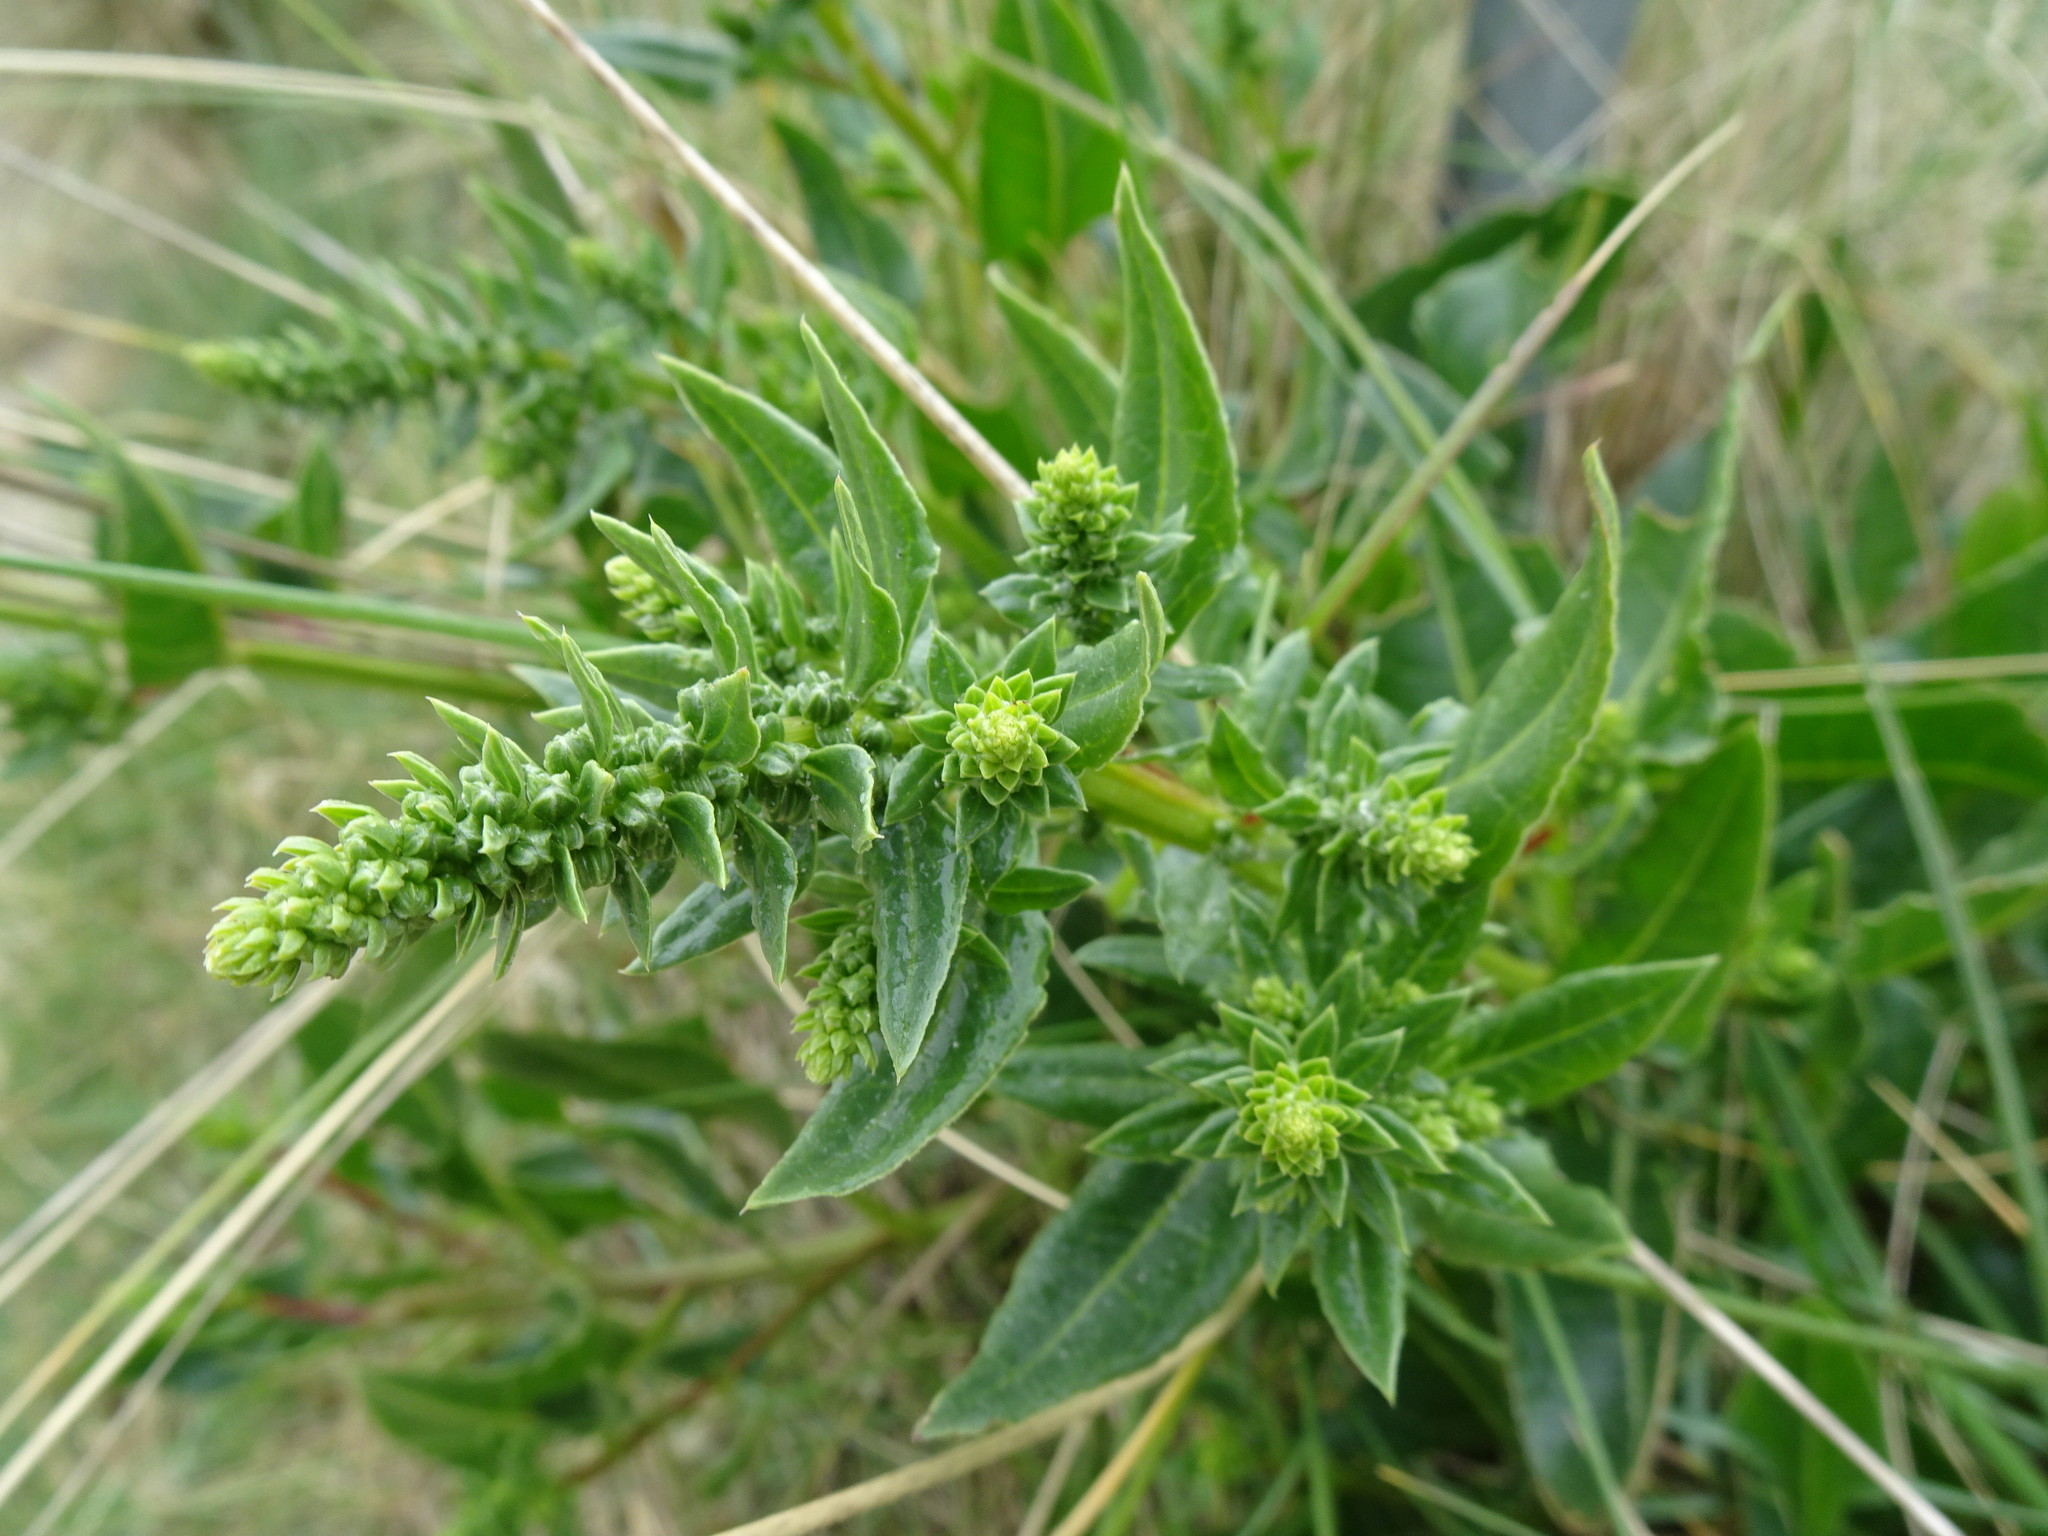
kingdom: Plantae
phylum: Tracheophyta
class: Magnoliopsida
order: Caryophyllales
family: Amaranthaceae
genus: Beta
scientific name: Beta vulgaris
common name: Beet
